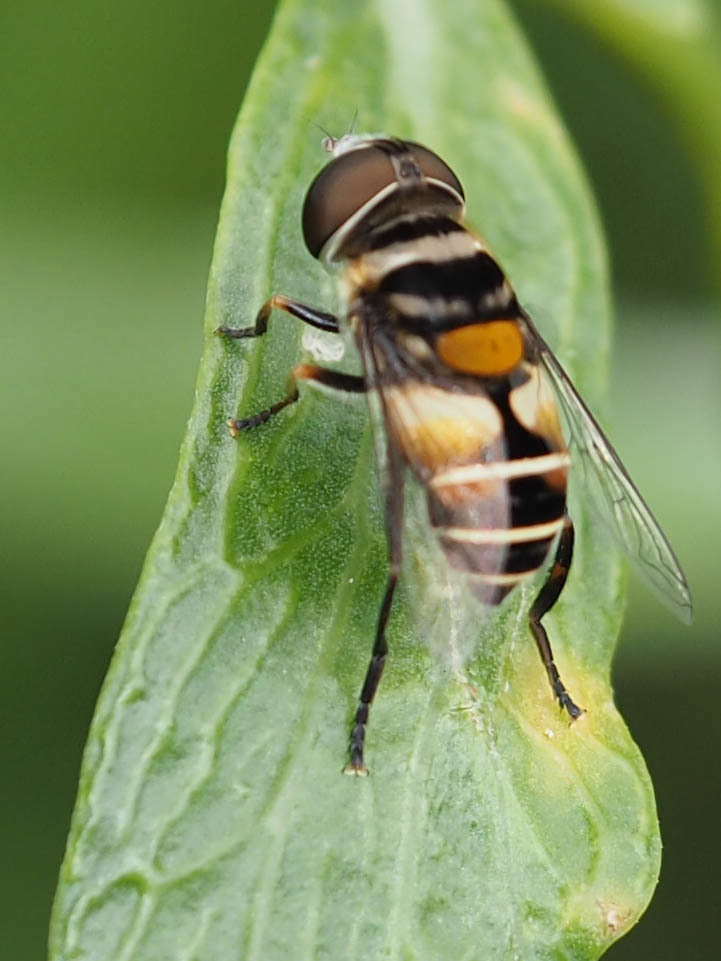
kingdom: Animalia
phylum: Arthropoda
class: Insecta
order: Diptera
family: Syrphidae
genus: Palpada
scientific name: Palpada albifrons
